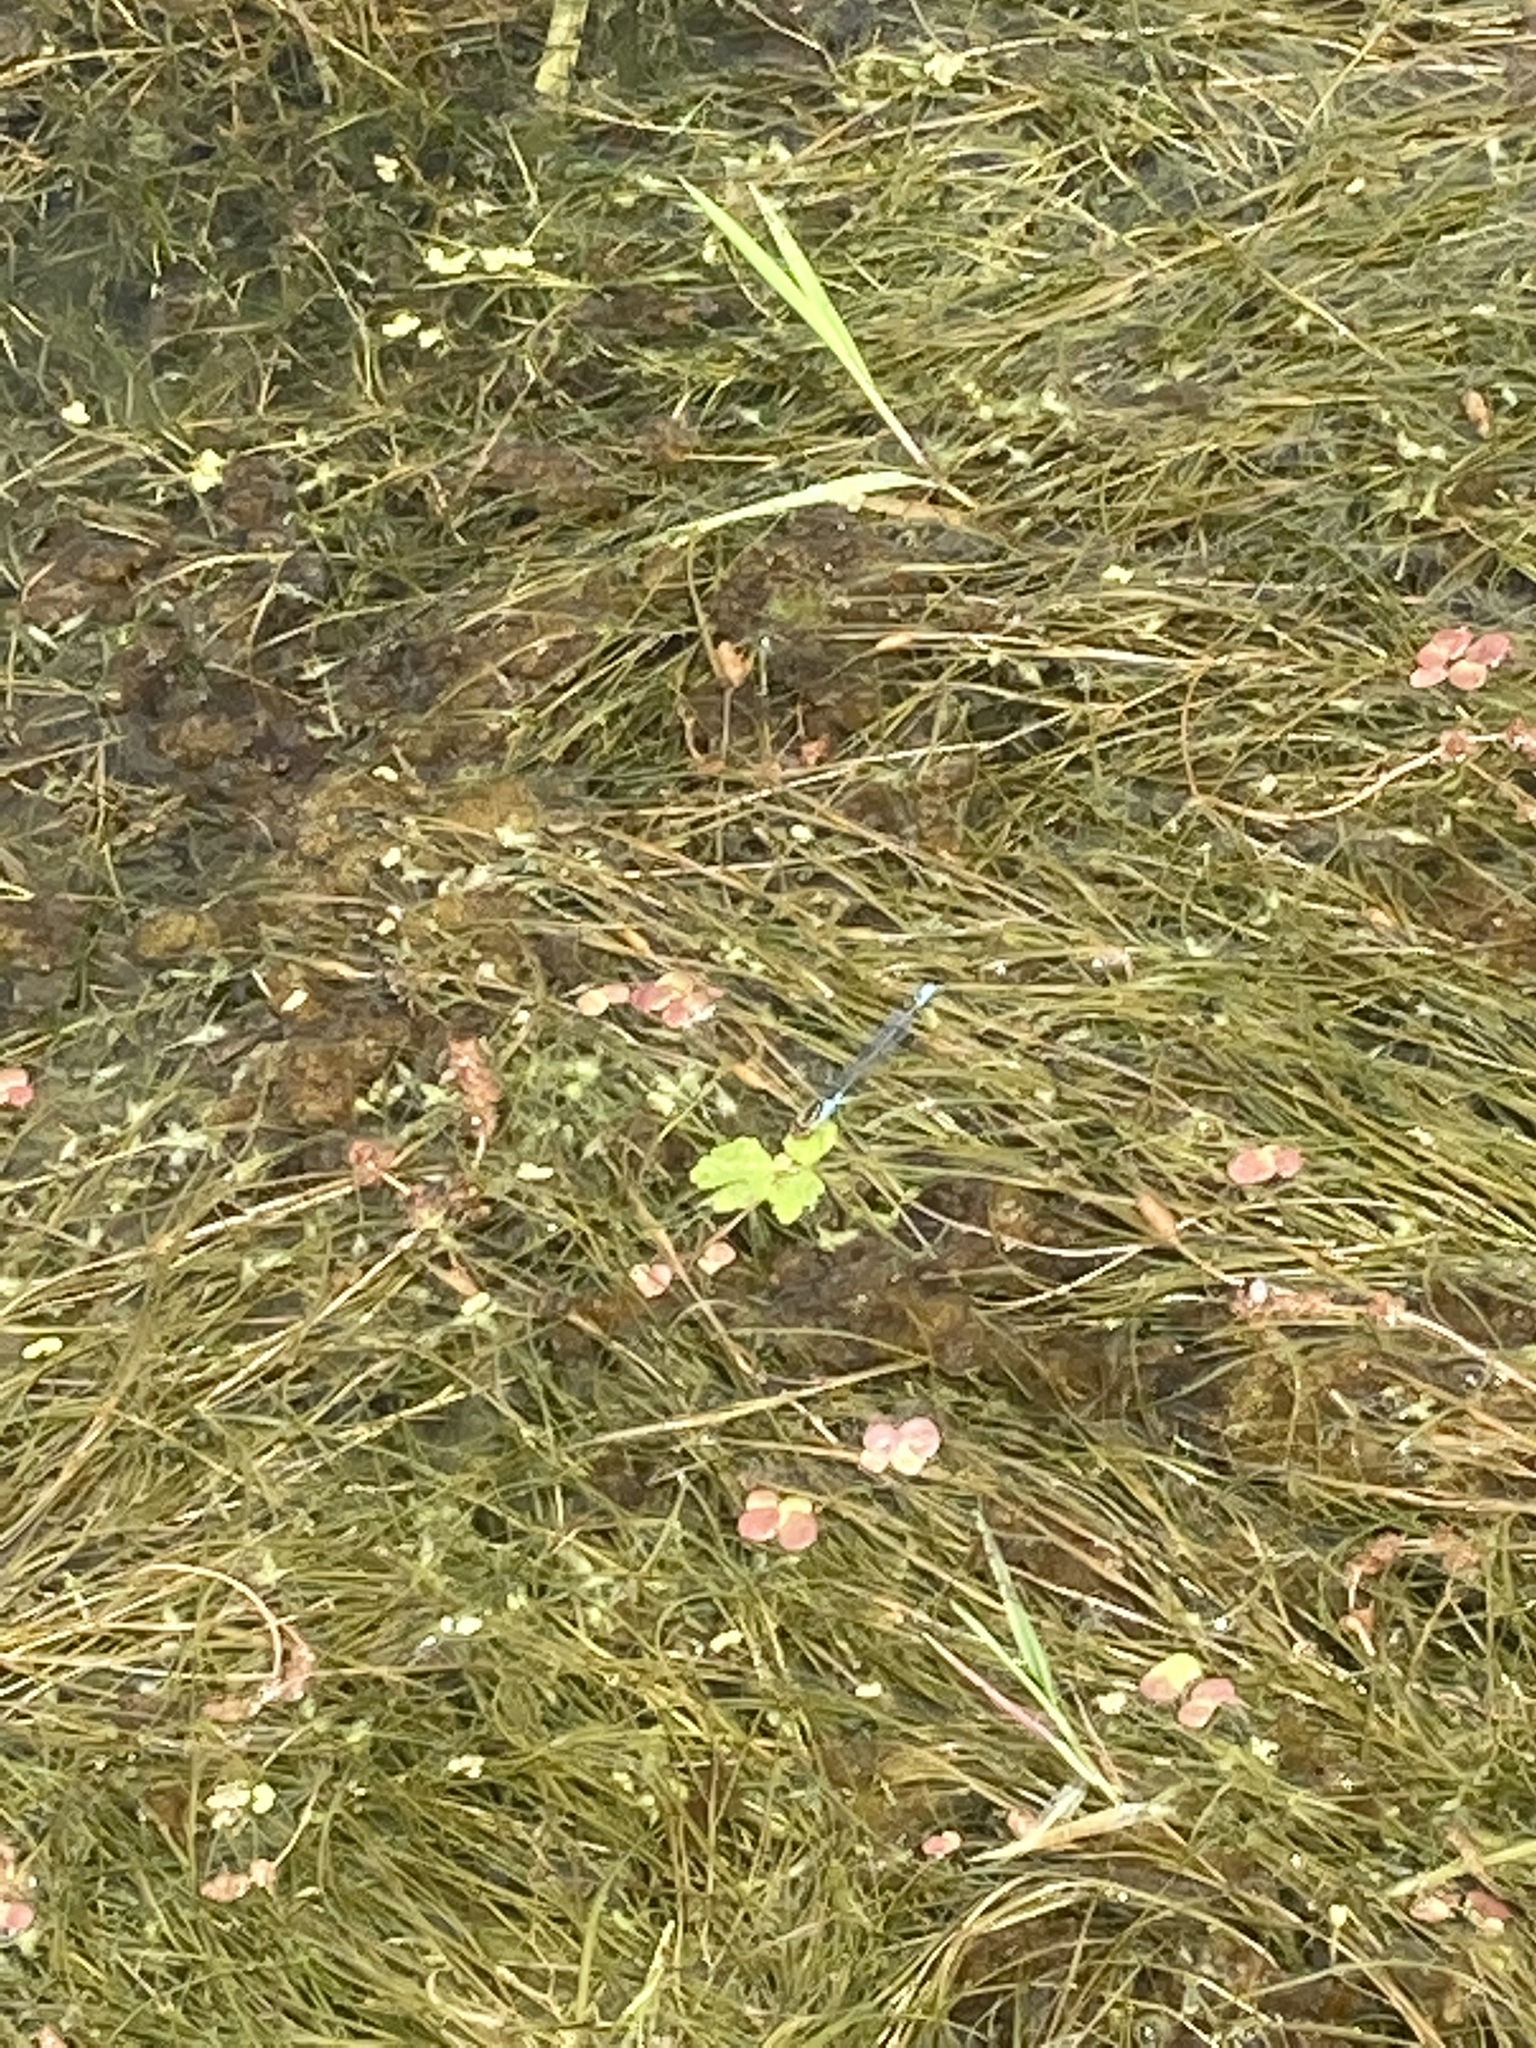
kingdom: Animalia
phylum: Arthropoda
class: Insecta
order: Odonata
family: Coenagrionidae
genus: Erythromma
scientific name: Erythromma viridulum
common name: Small red-eyed damselfly
